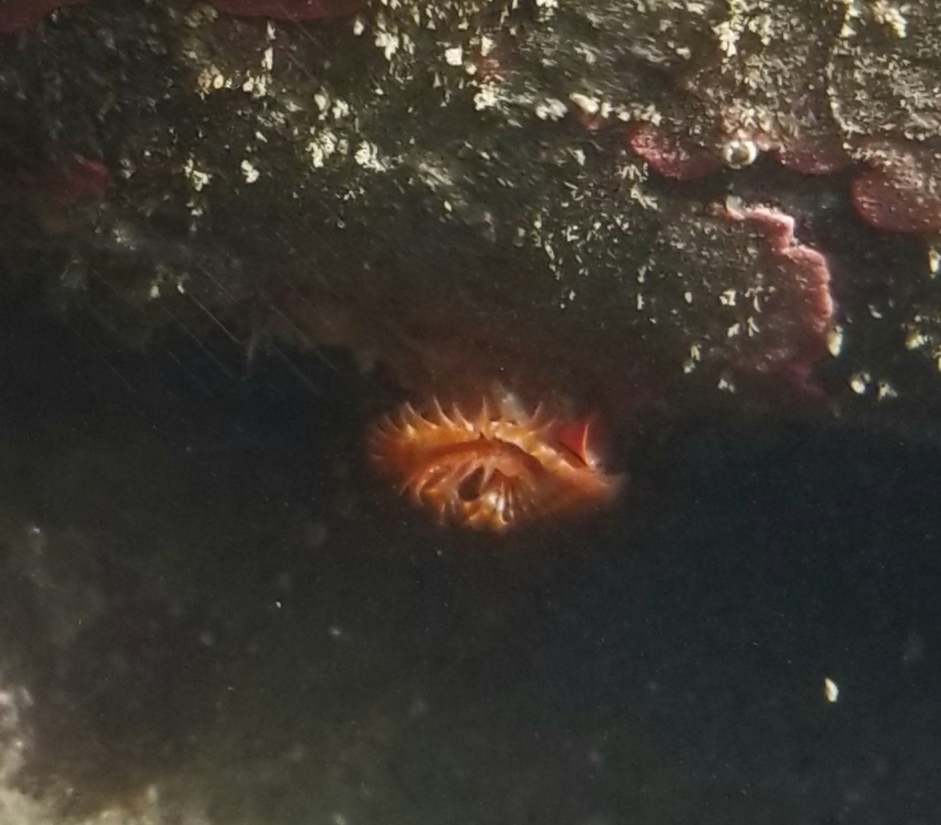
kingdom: Animalia
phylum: Annelida
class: Polychaeta
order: Sabellida
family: Serpulidae
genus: Serpula
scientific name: Serpula columbiana
